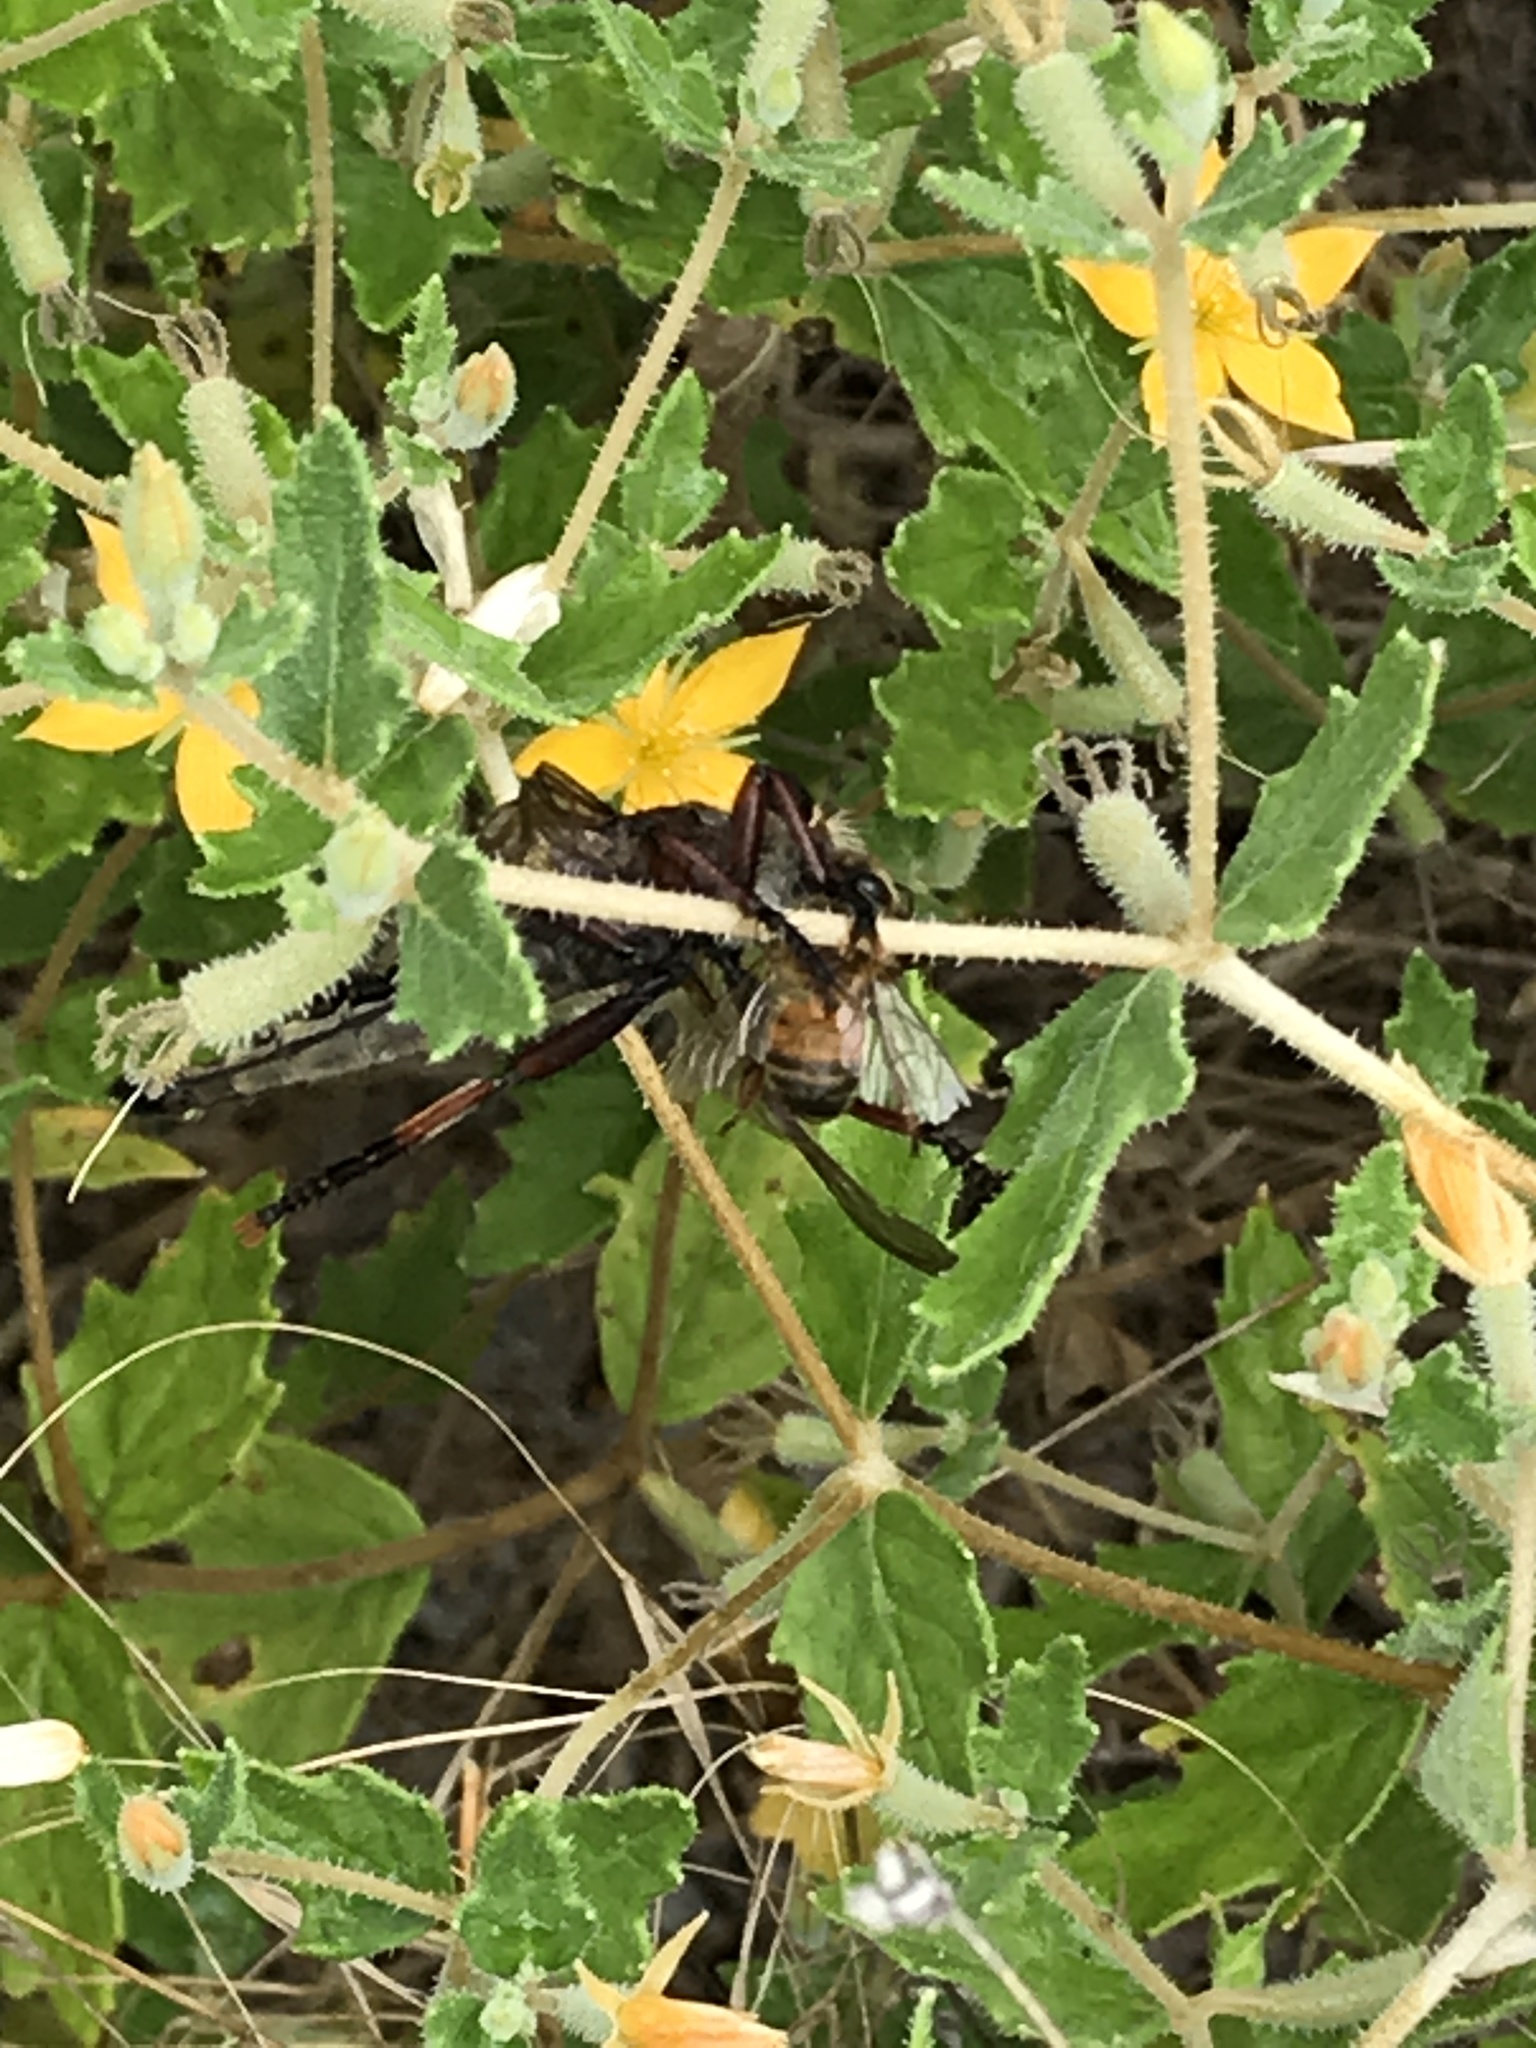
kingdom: Animalia
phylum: Arthropoda
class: Insecta
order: Diptera
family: Asilidae
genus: Promachus
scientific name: Promachus hinei
